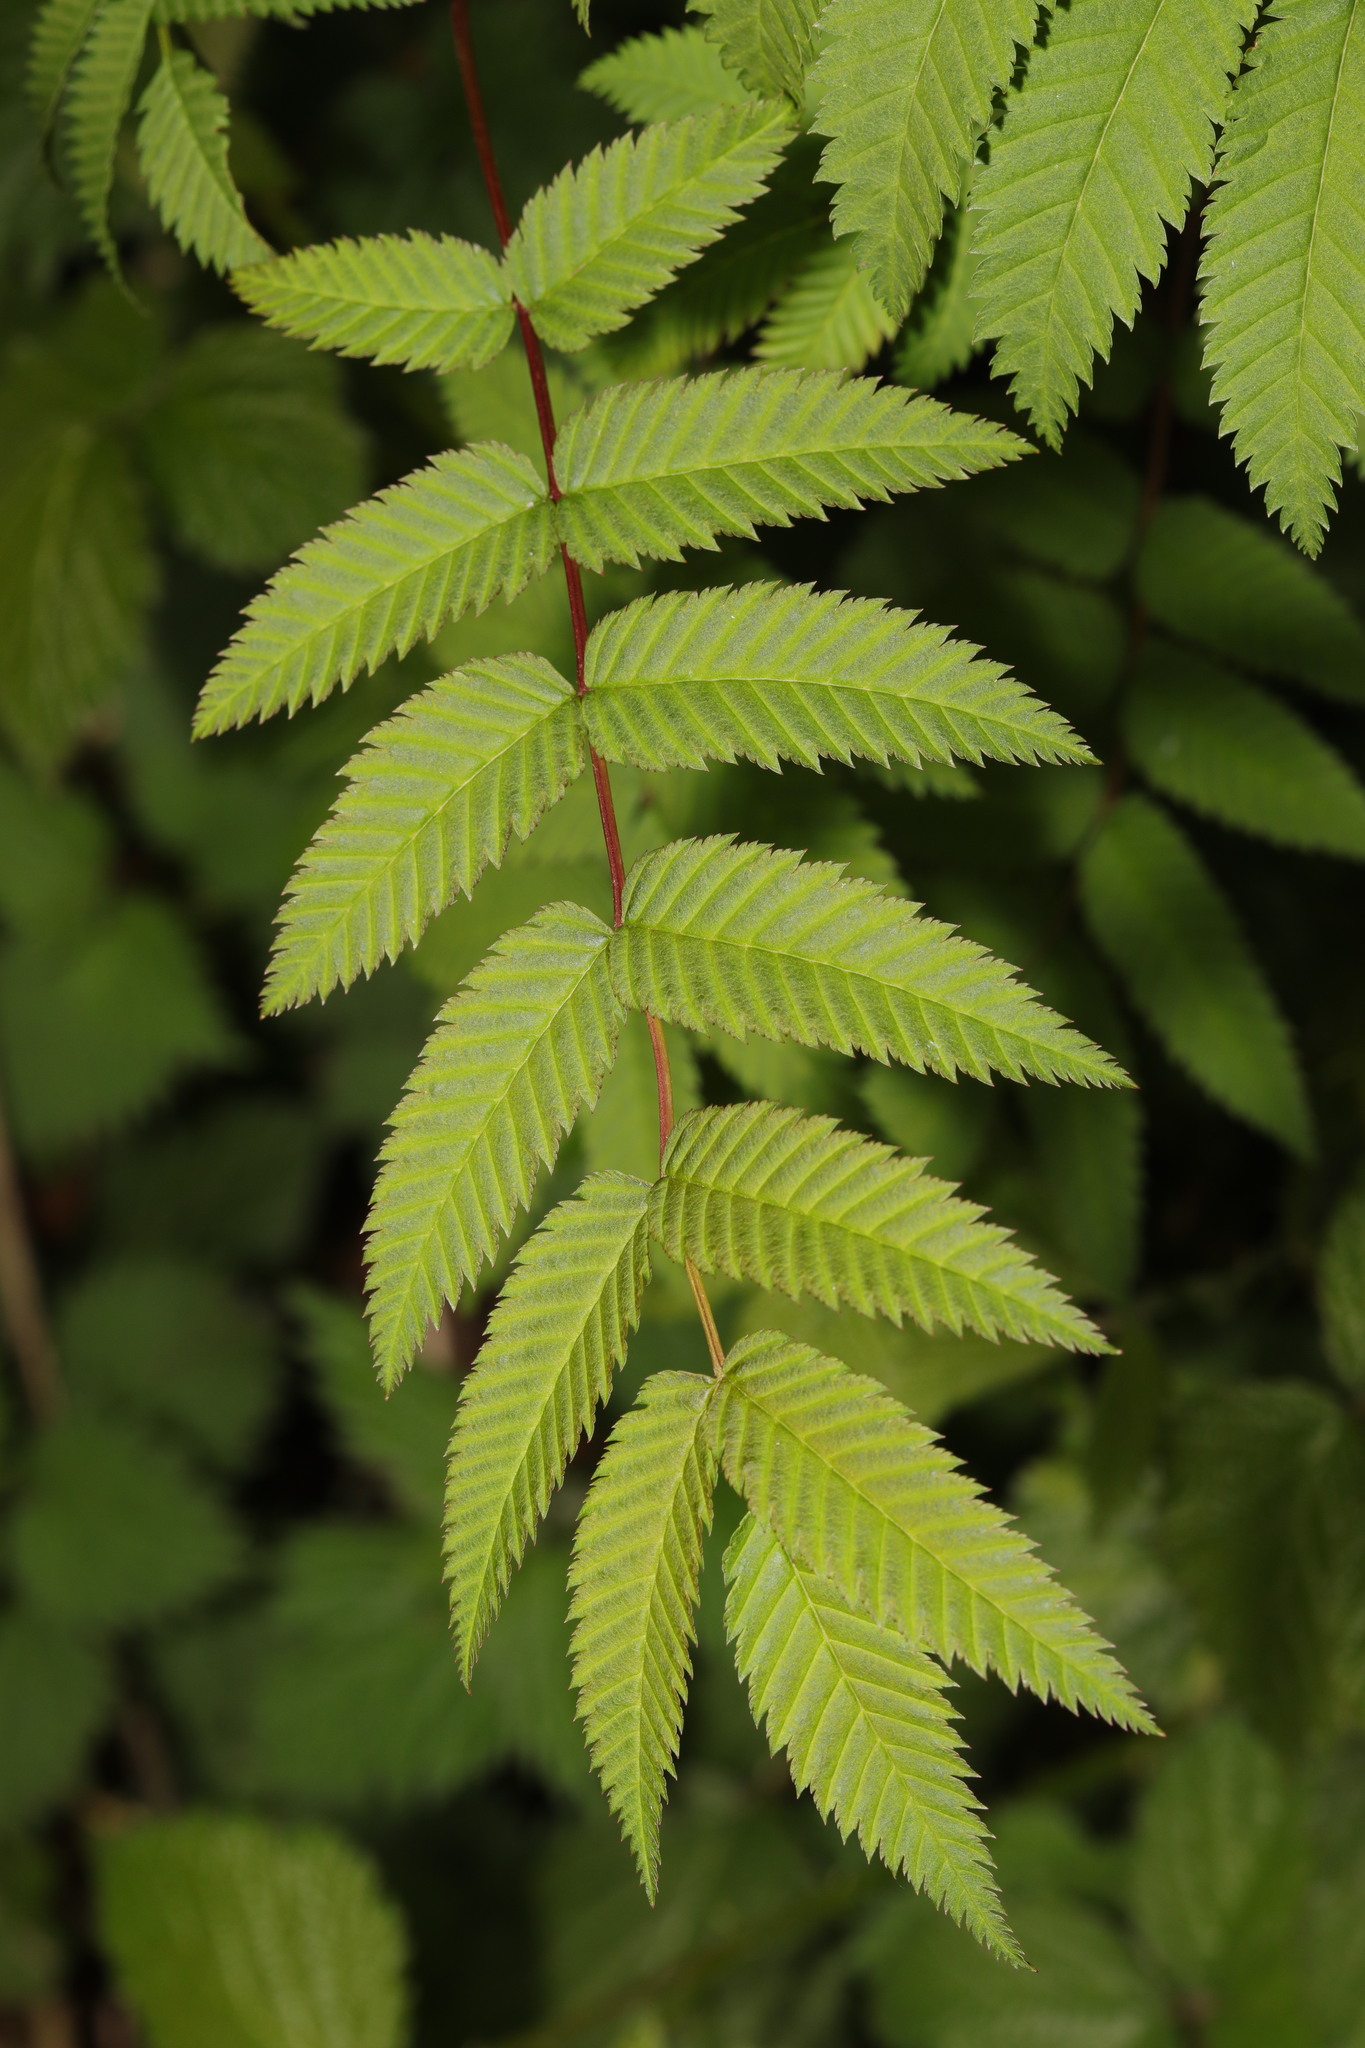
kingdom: Plantae
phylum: Tracheophyta
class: Magnoliopsida
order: Rosales
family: Rosaceae
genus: Sorbaria
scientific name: Sorbaria sorbifolia
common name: False spiraea
